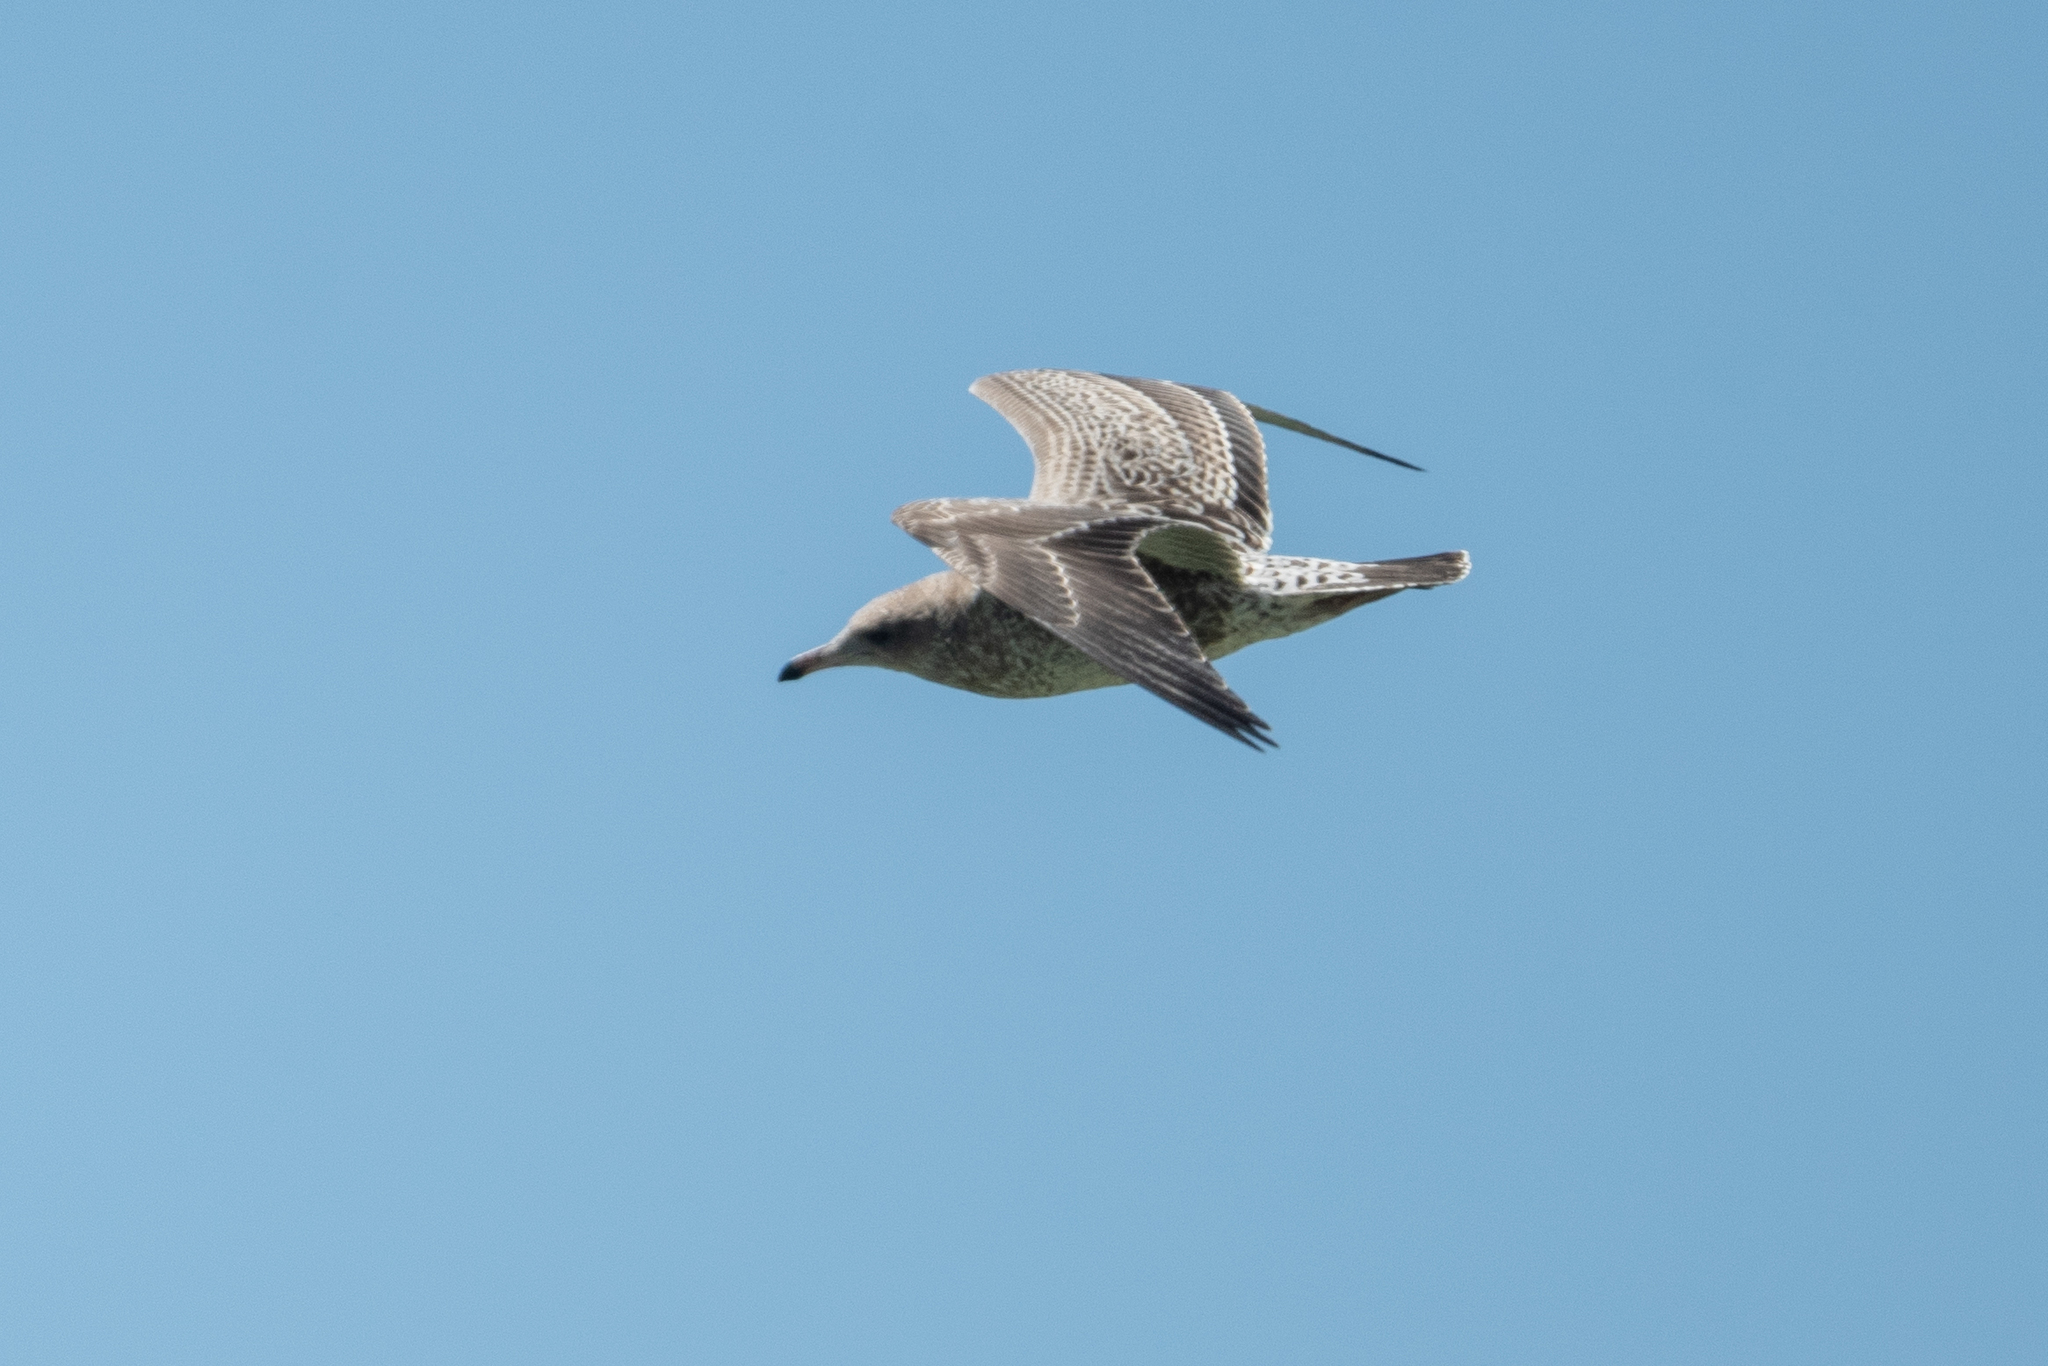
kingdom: Animalia
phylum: Chordata
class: Aves
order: Charadriiformes
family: Laridae
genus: Larus
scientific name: Larus californicus
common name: California gull
